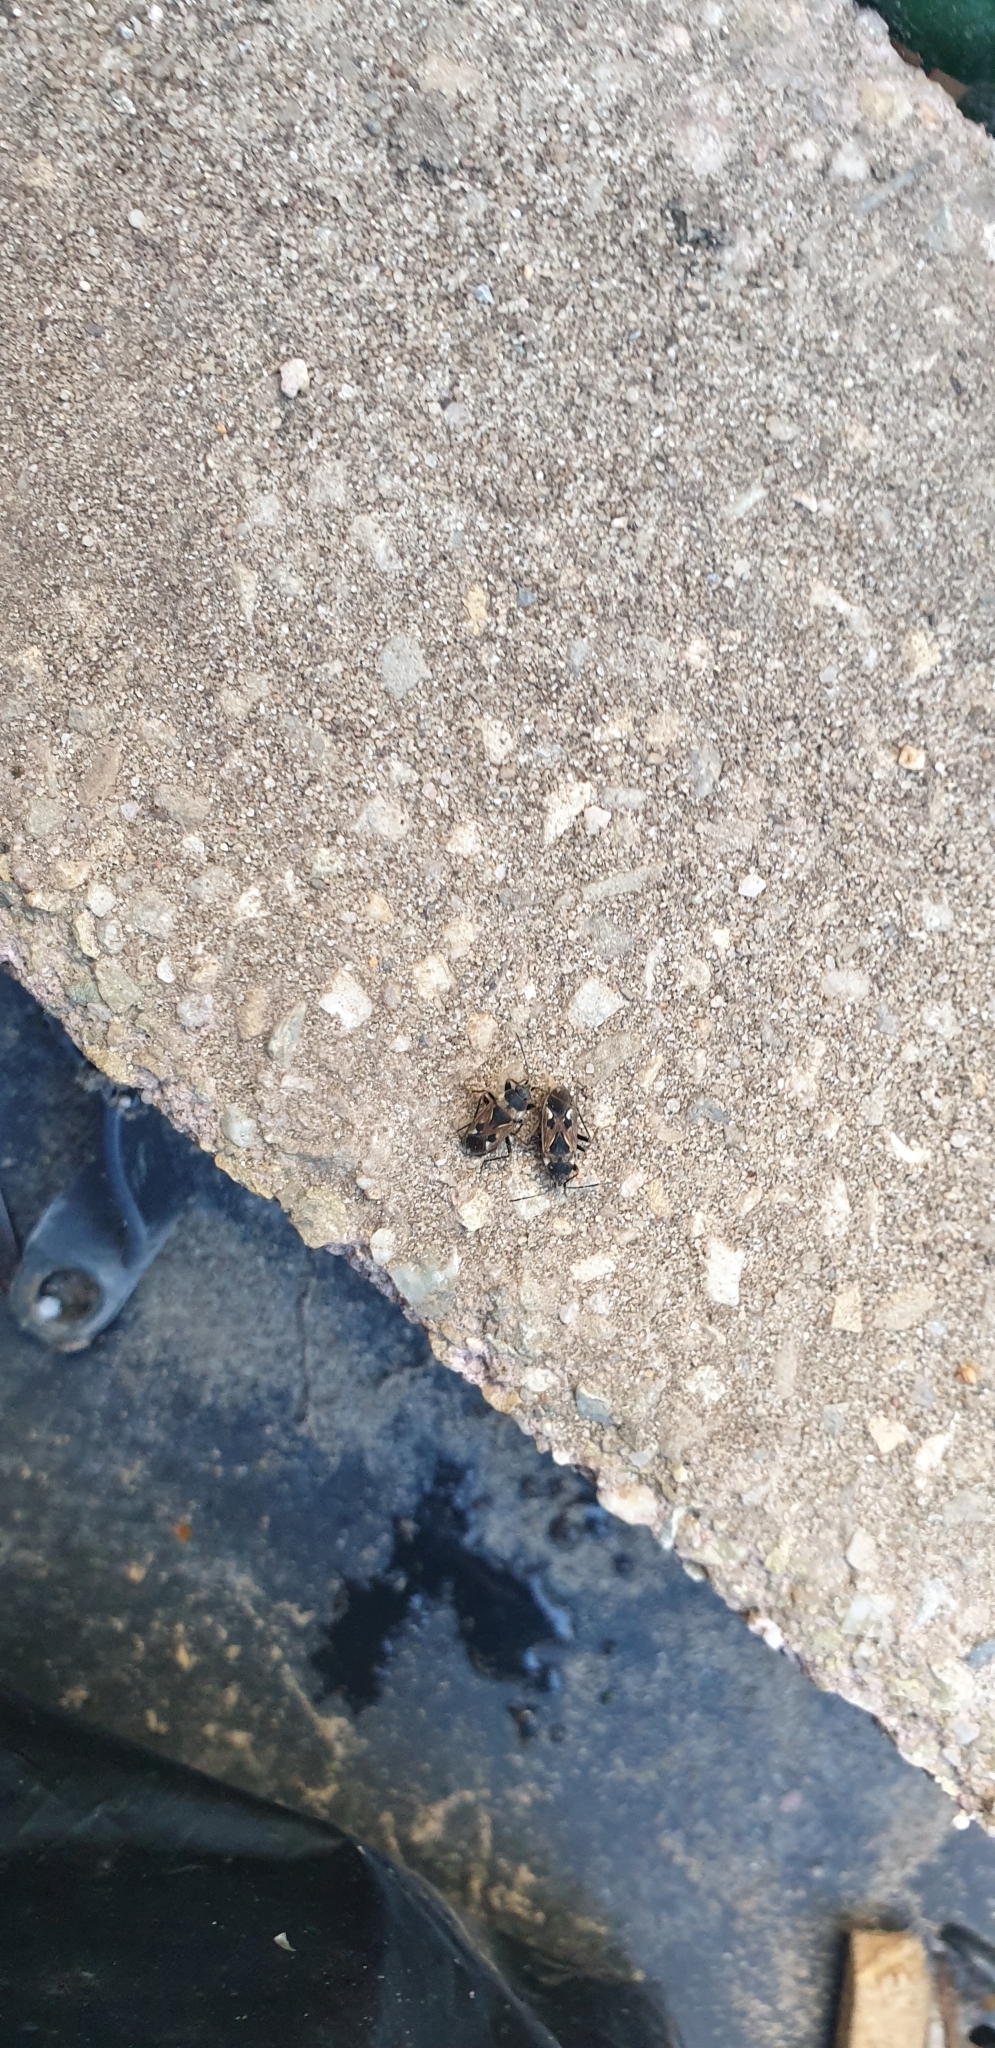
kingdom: Animalia
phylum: Arthropoda
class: Insecta
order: Hemiptera
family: Rhyparochromidae
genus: Rhyparochromus
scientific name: Rhyparochromus vulgaris
